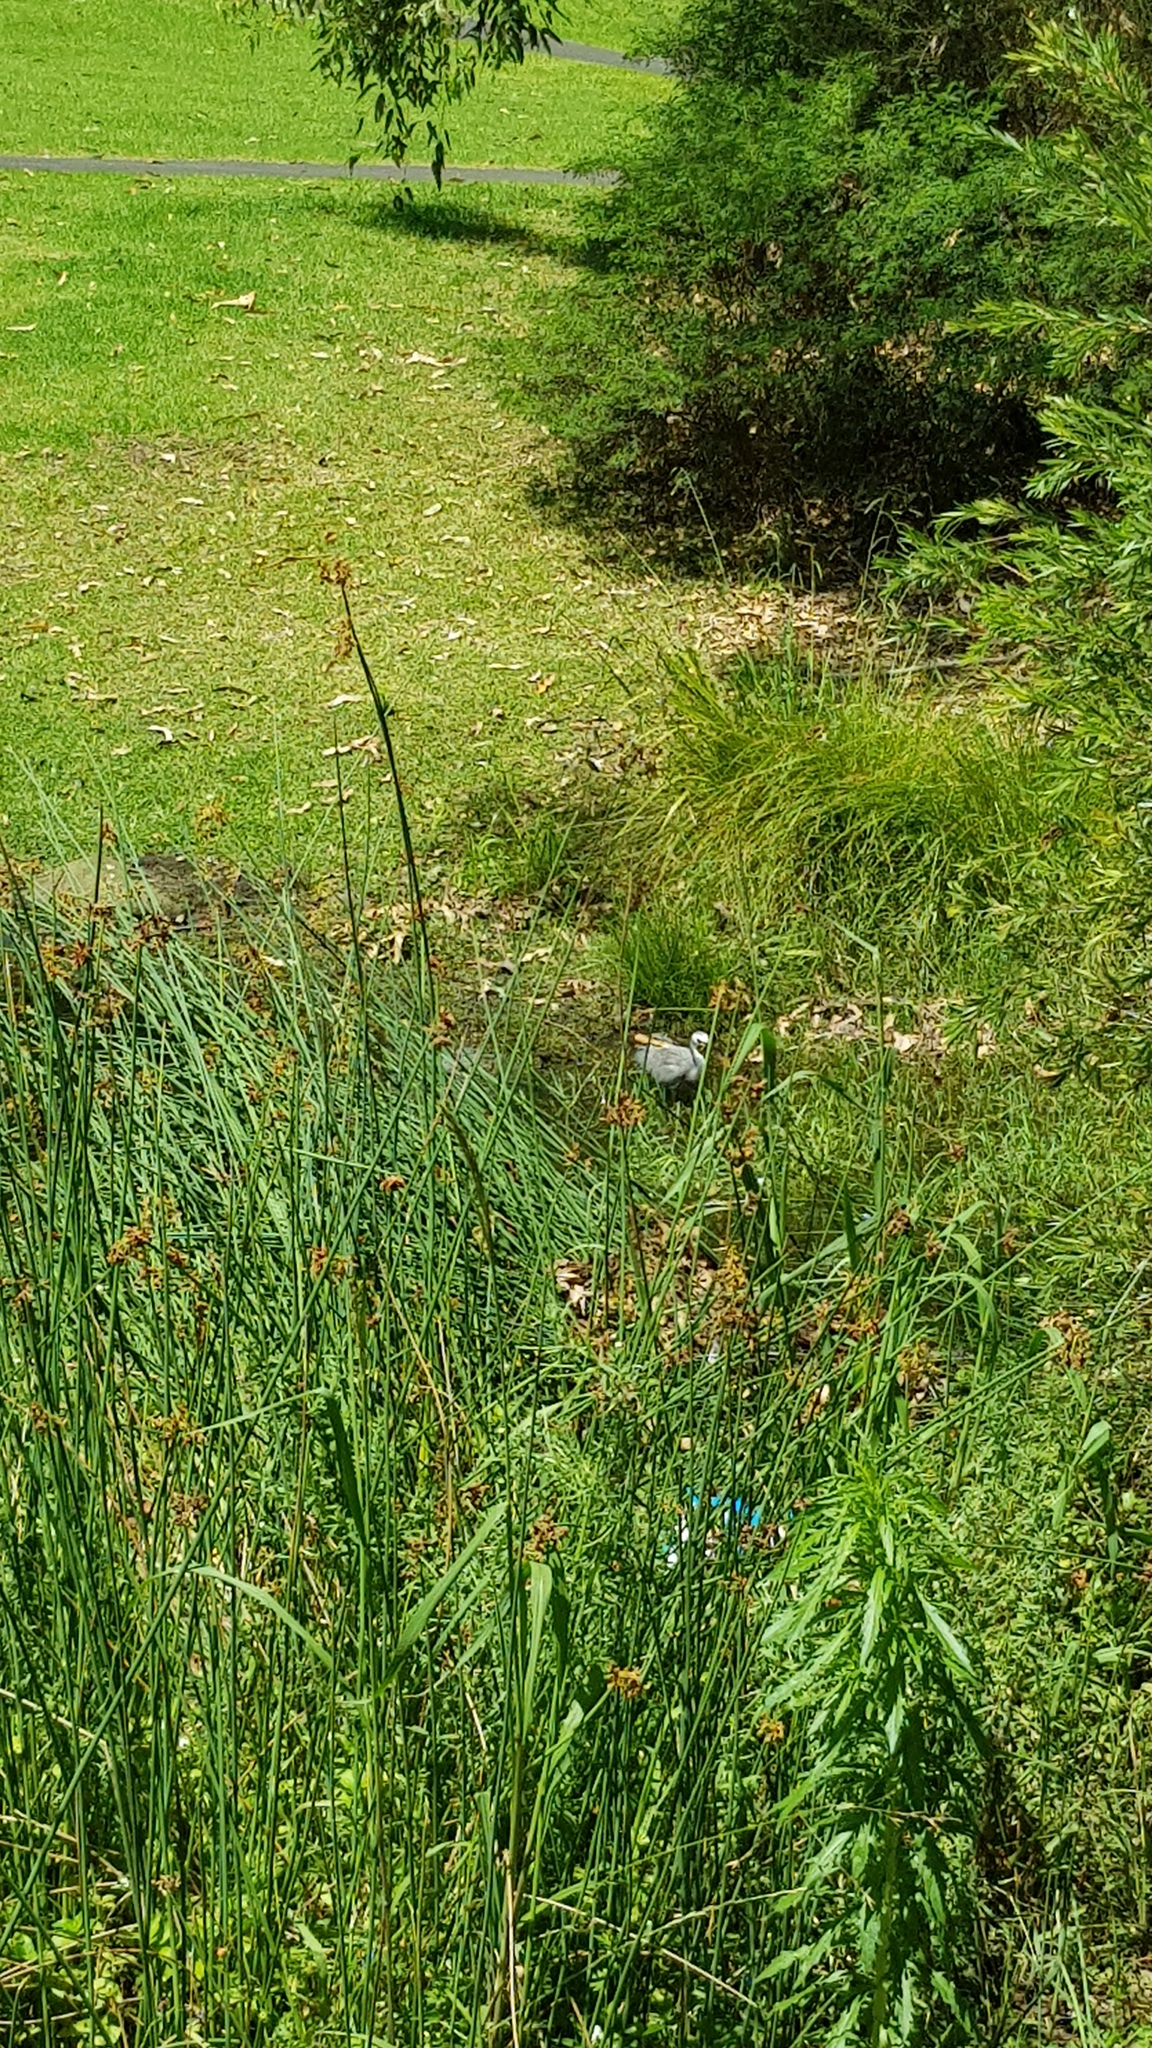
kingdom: Animalia
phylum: Chordata
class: Aves
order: Pelecaniformes
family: Ardeidae
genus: Egretta
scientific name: Egretta novaehollandiae
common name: White-faced heron
